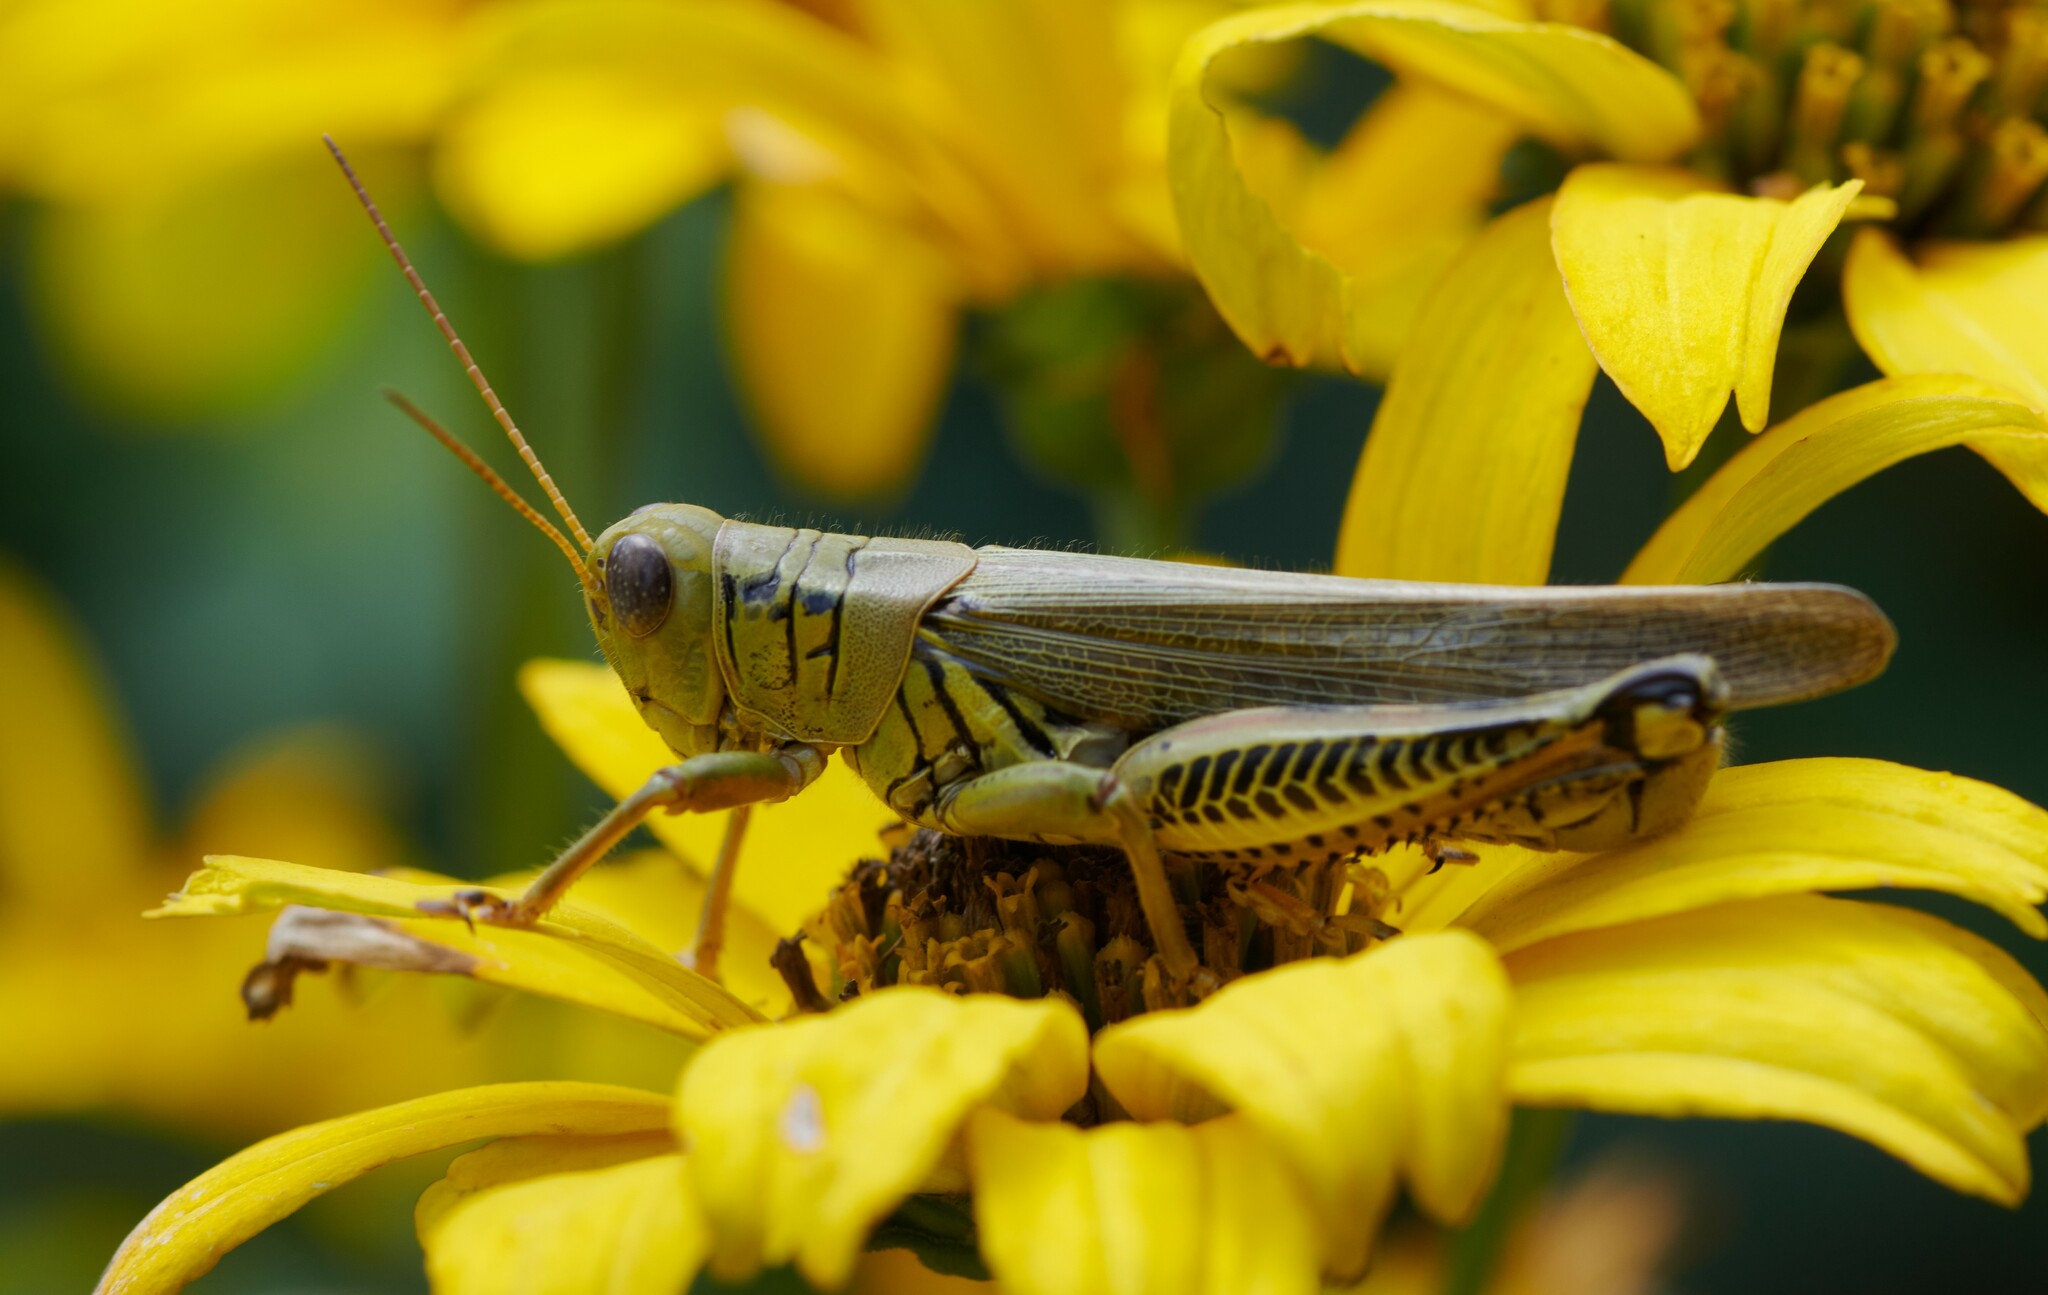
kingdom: Animalia
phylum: Arthropoda
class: Insecta
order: Orthoptera
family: Acrididae
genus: Melanoplus
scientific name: Melanoplus differentialis
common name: Differential grasshopper
